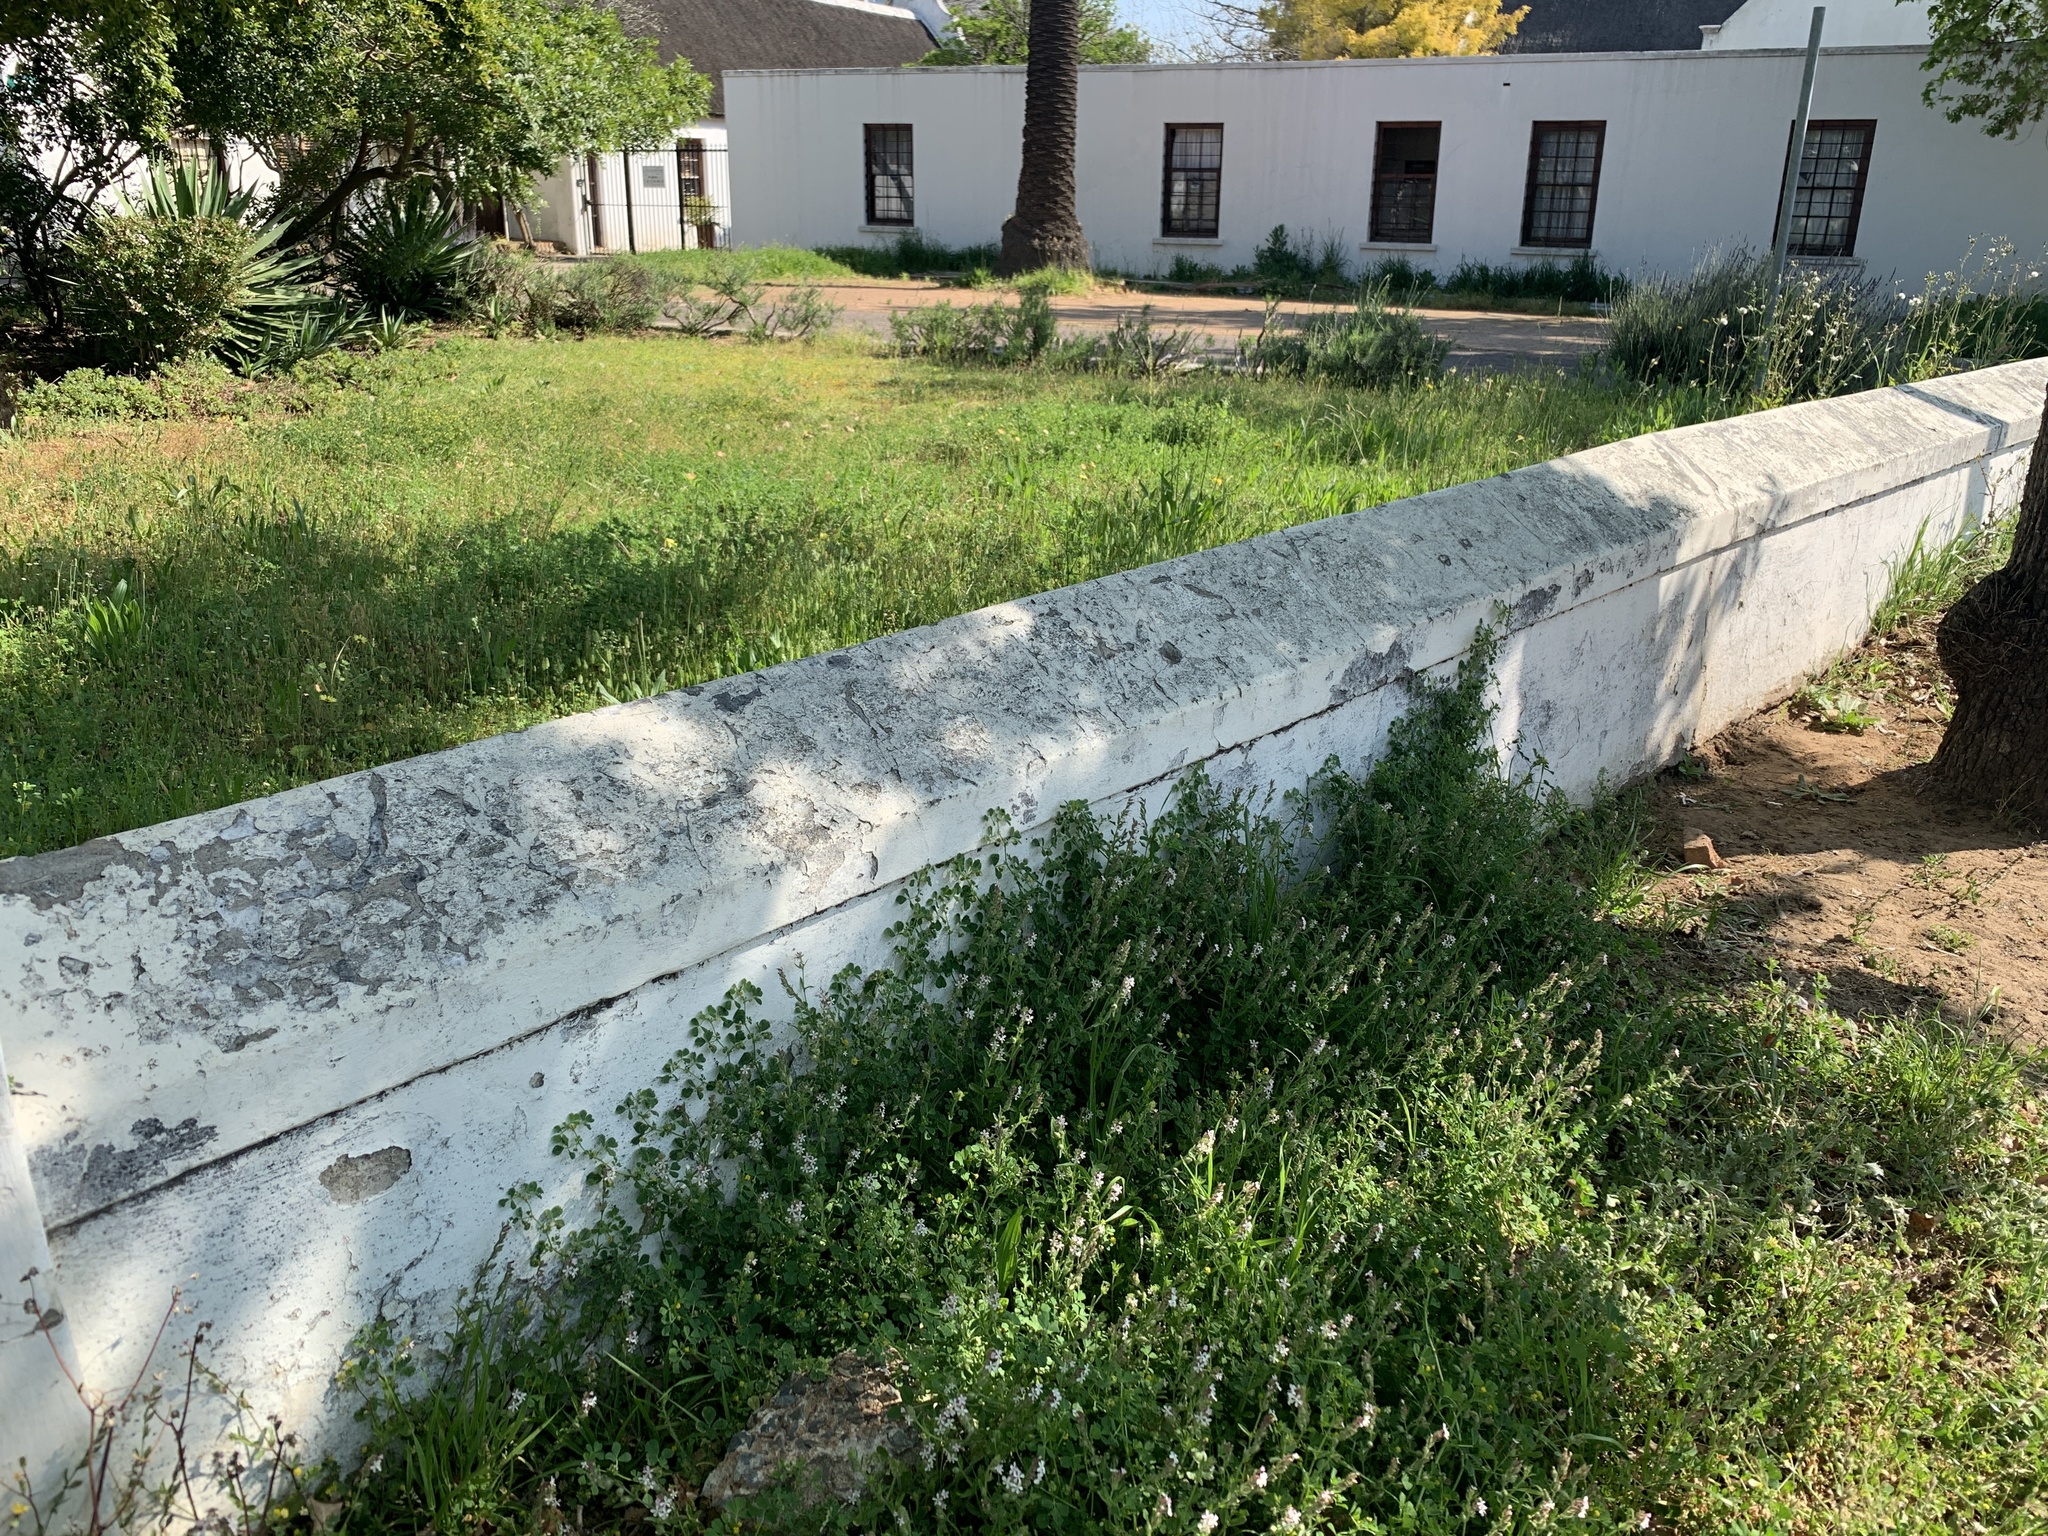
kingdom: Plantae
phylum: Tracheophyta
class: Magnoliopsida
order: Caryophyllales
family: Caryophyllaceae
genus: Silene
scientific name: Silene gallica
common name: Small-flowered catchfly
